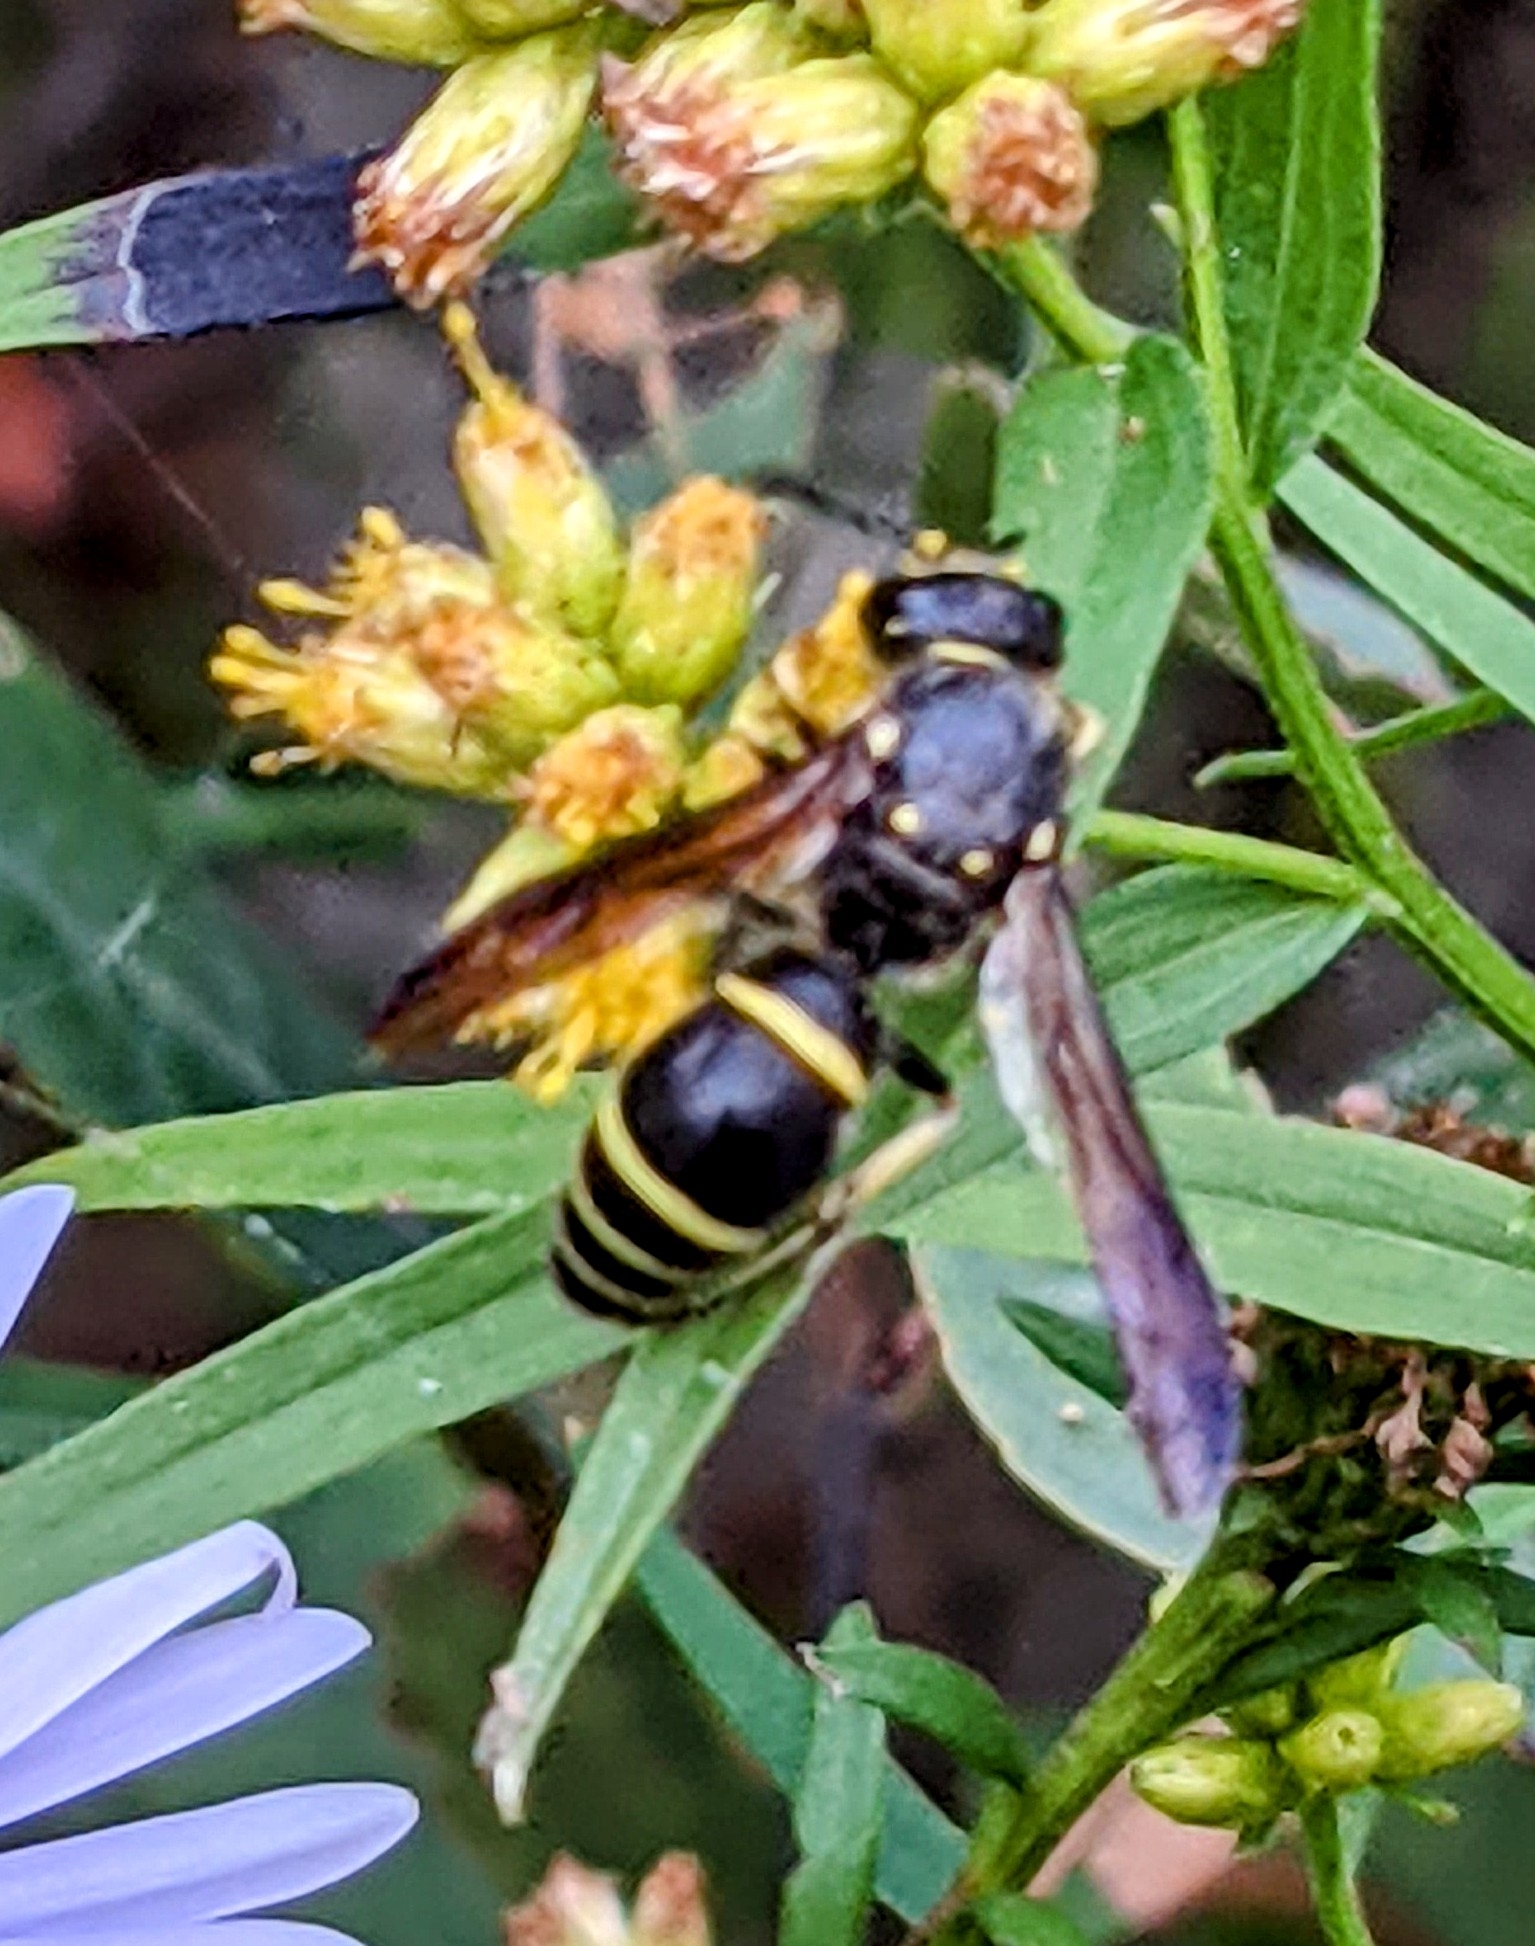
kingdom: Animalia
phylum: Arthropoda
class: Insecta
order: Hymenoptera
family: Vespidae
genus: Ancistrocerus
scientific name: Ancistrocerus
